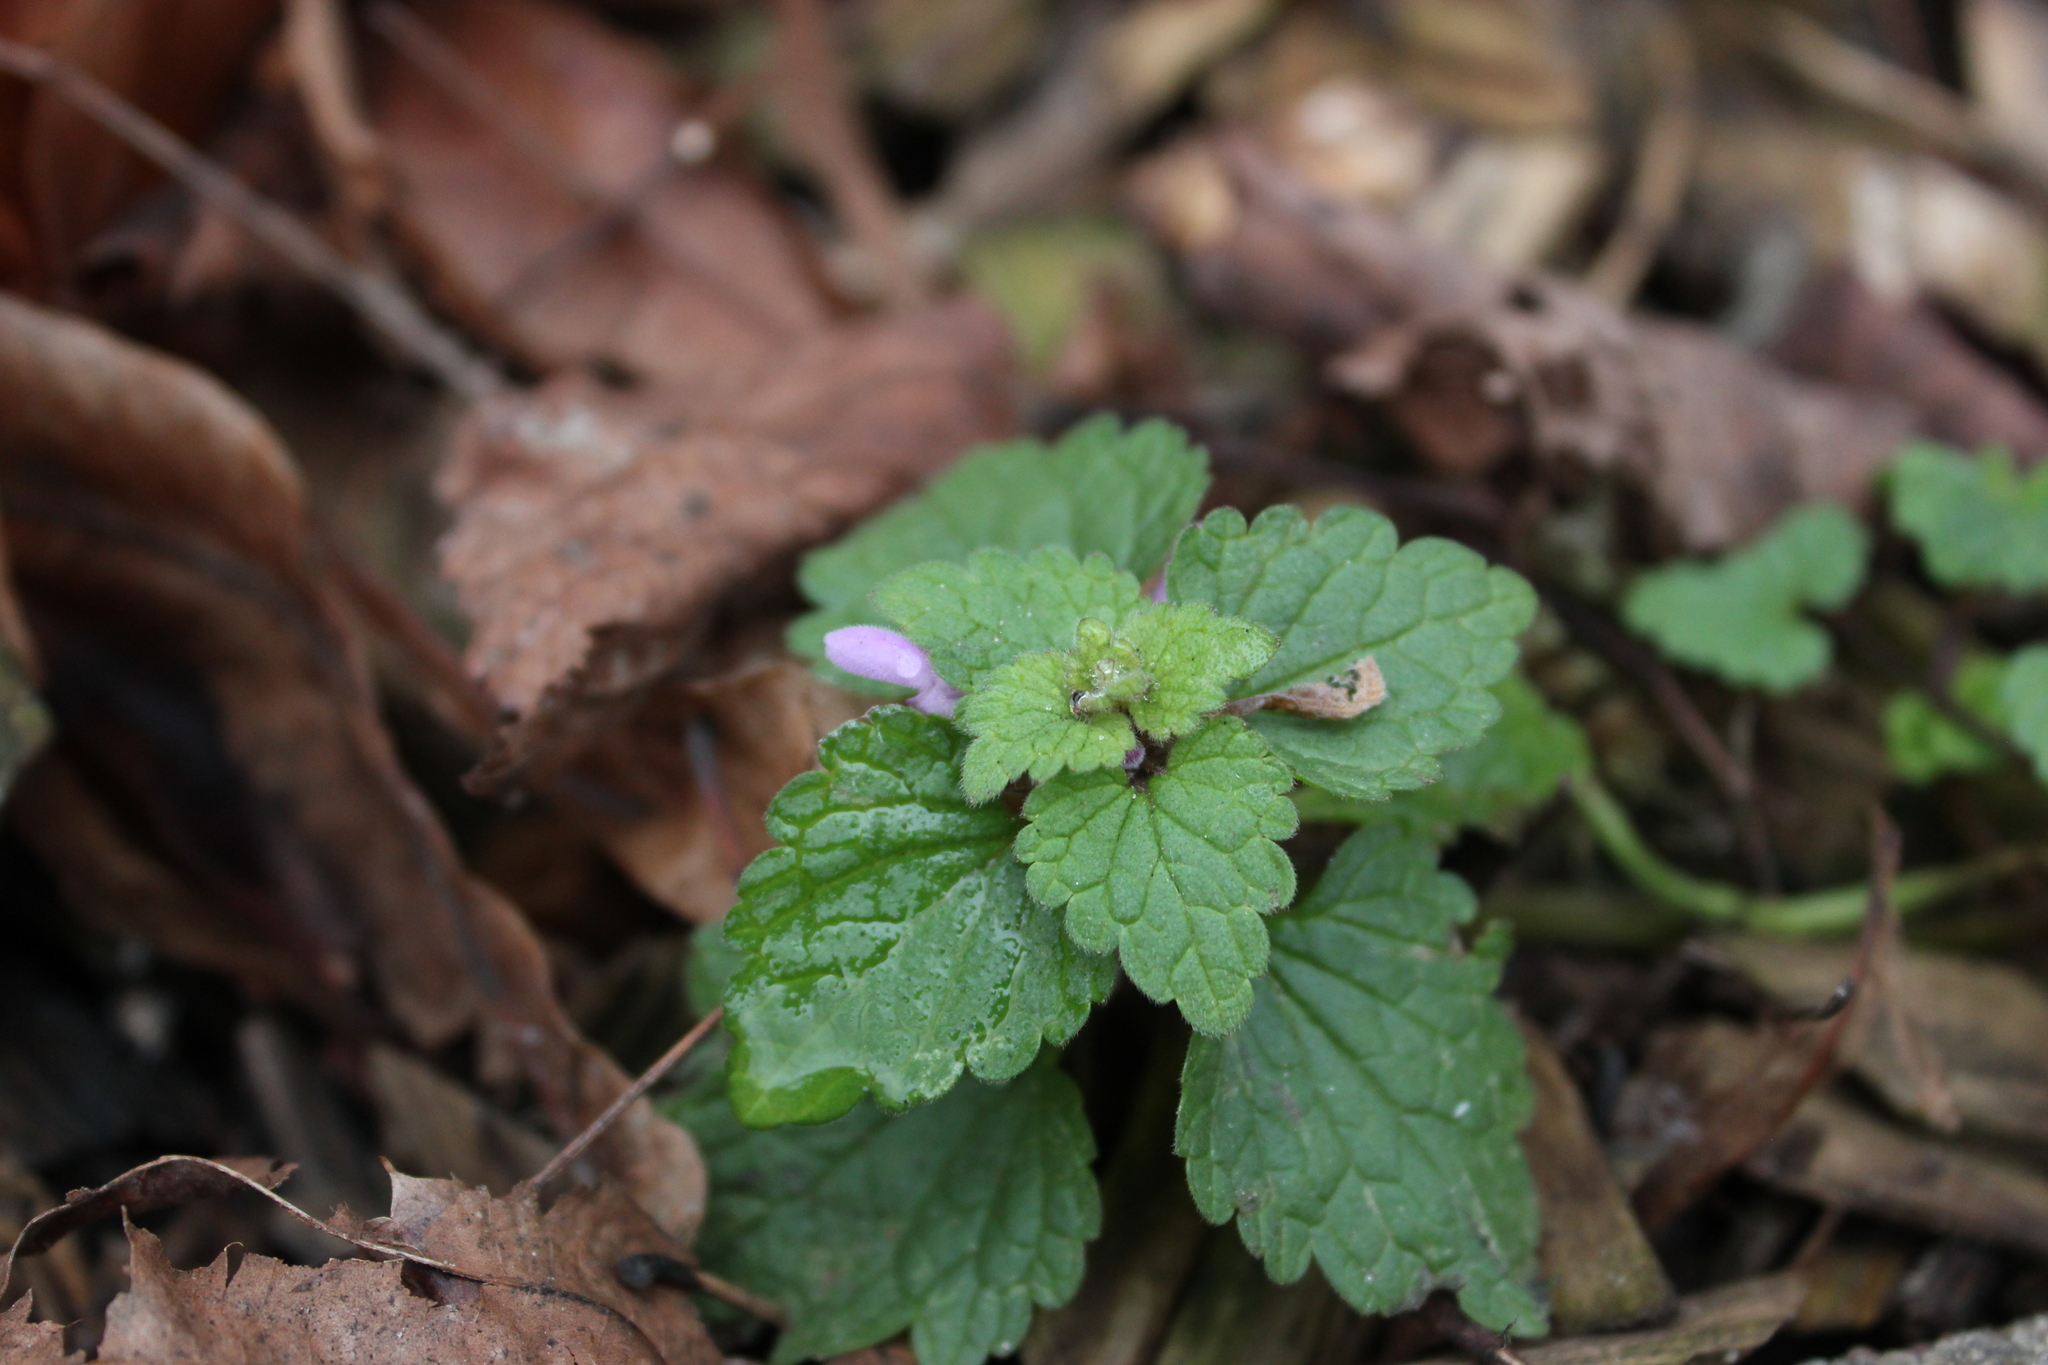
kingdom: Plantae
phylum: Tracheophyta
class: Magnoliopsida
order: Lamiales
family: Lamiaceae
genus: Lamium
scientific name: Lamium purpureum
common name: Red dead-nettle
